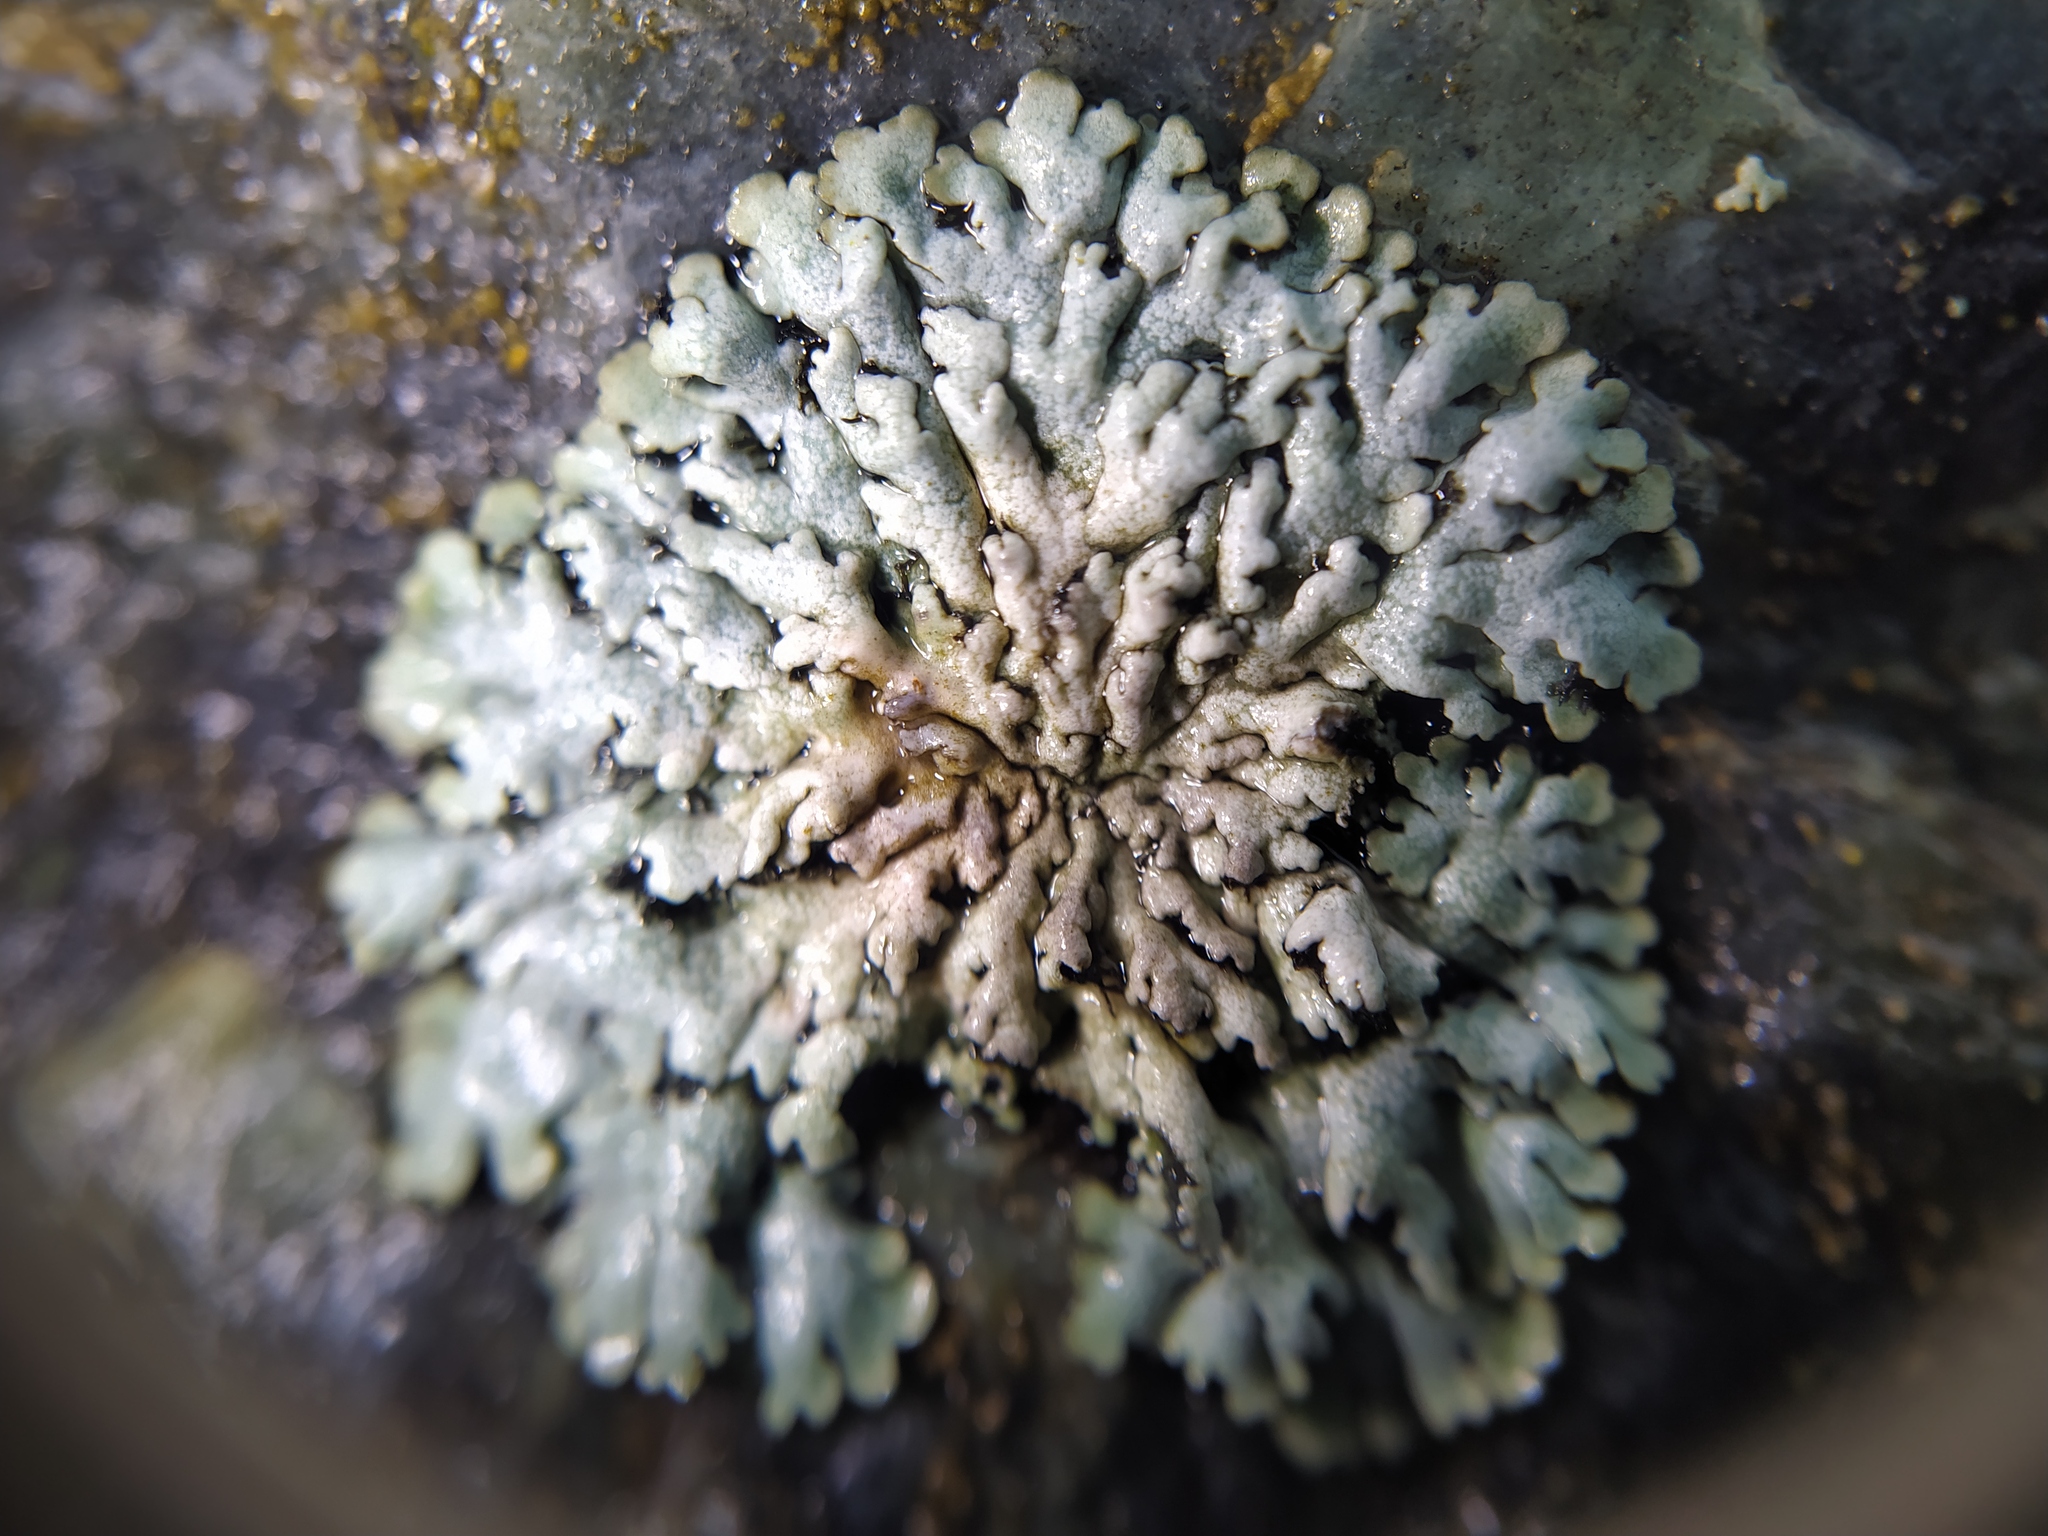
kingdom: Fungi
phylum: Ascomycota
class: Lecanoromycetes
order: Caliciales
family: Physciaceae
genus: Physcia
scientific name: Physcia caesia
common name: Blue-gray rosette lichen
